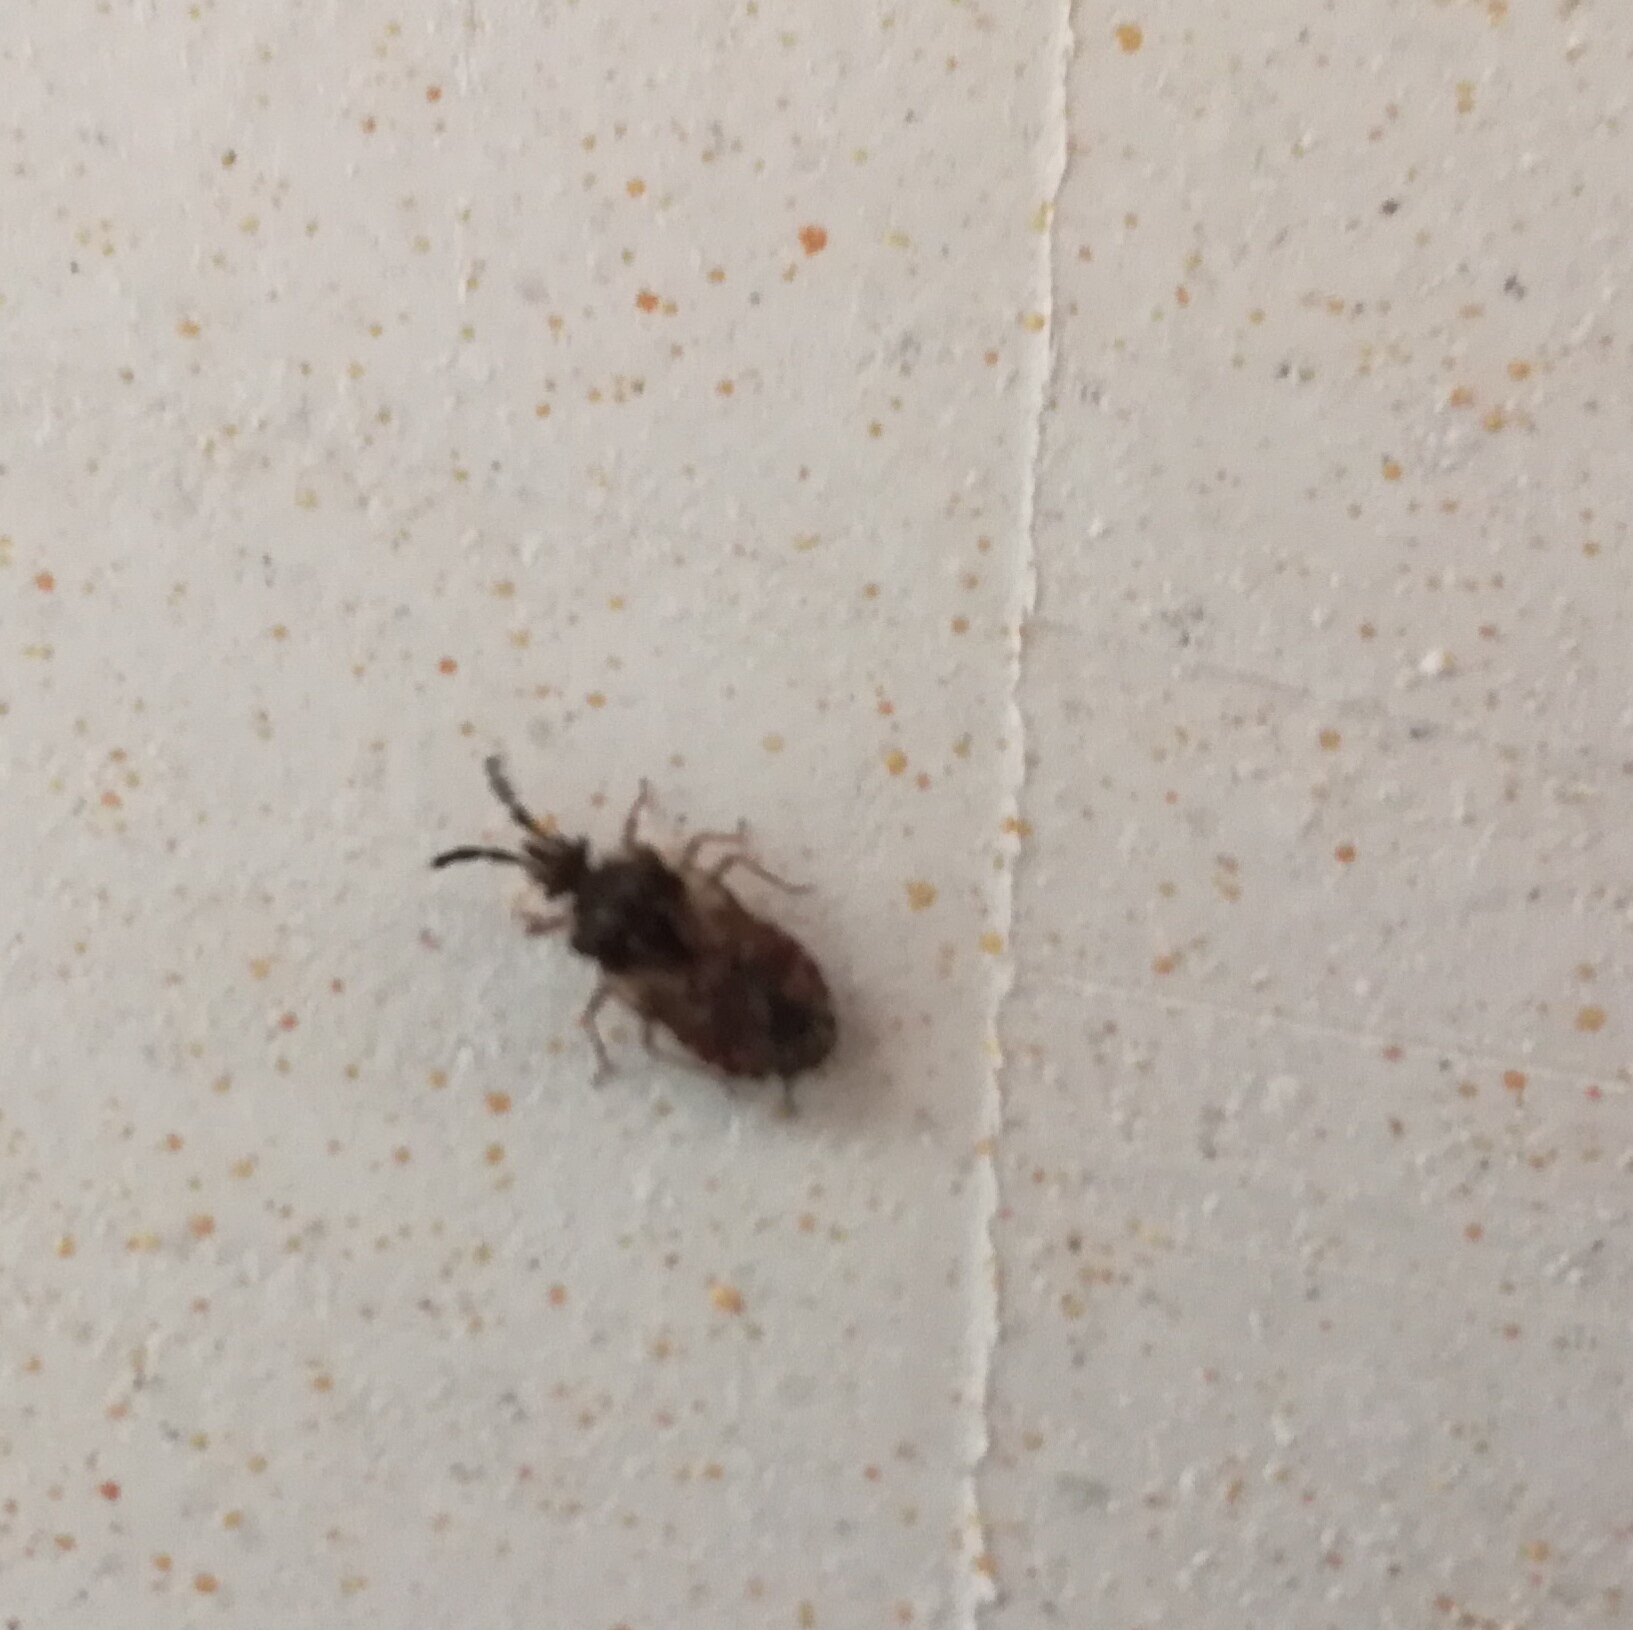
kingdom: Animalia
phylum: Arthropoda
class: Insecta
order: Hemiptera
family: Aradidae
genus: Aradus
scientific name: Aradus depressus
